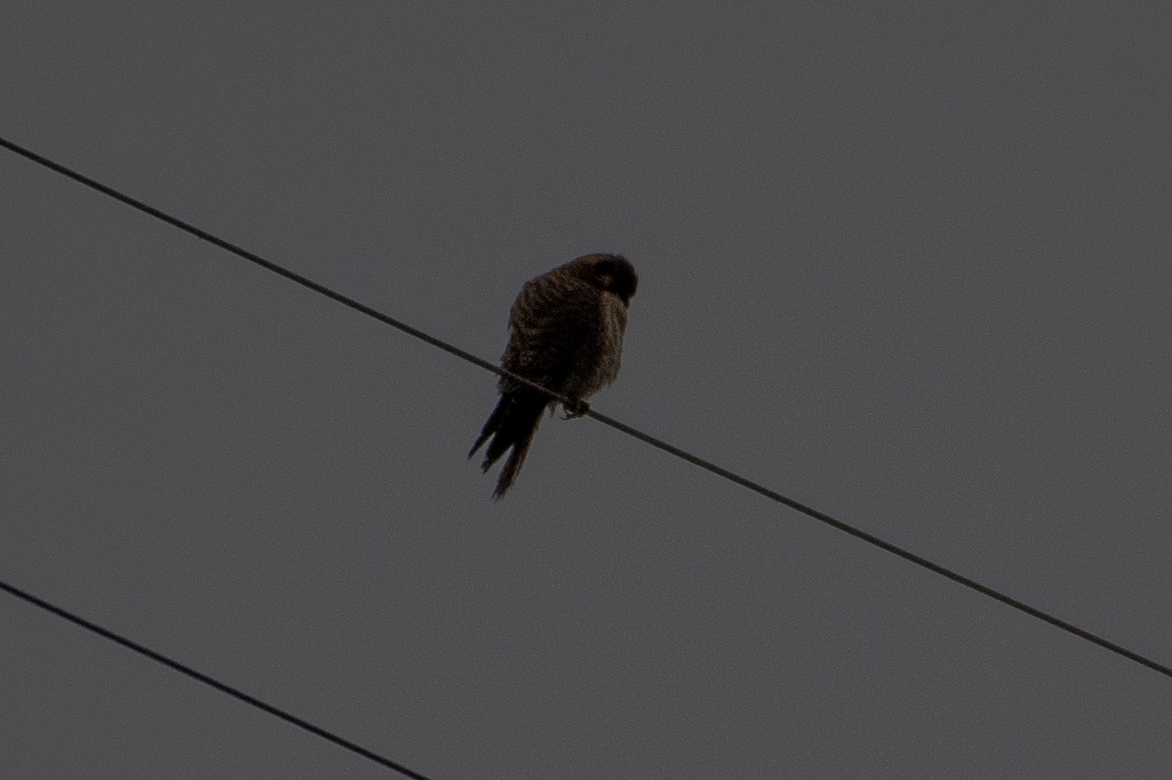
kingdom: Animalia
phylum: Chordata
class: Aves
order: Falconiformes
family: Falconidae
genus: Falco
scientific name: Falco sparverius
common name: American kestrel
